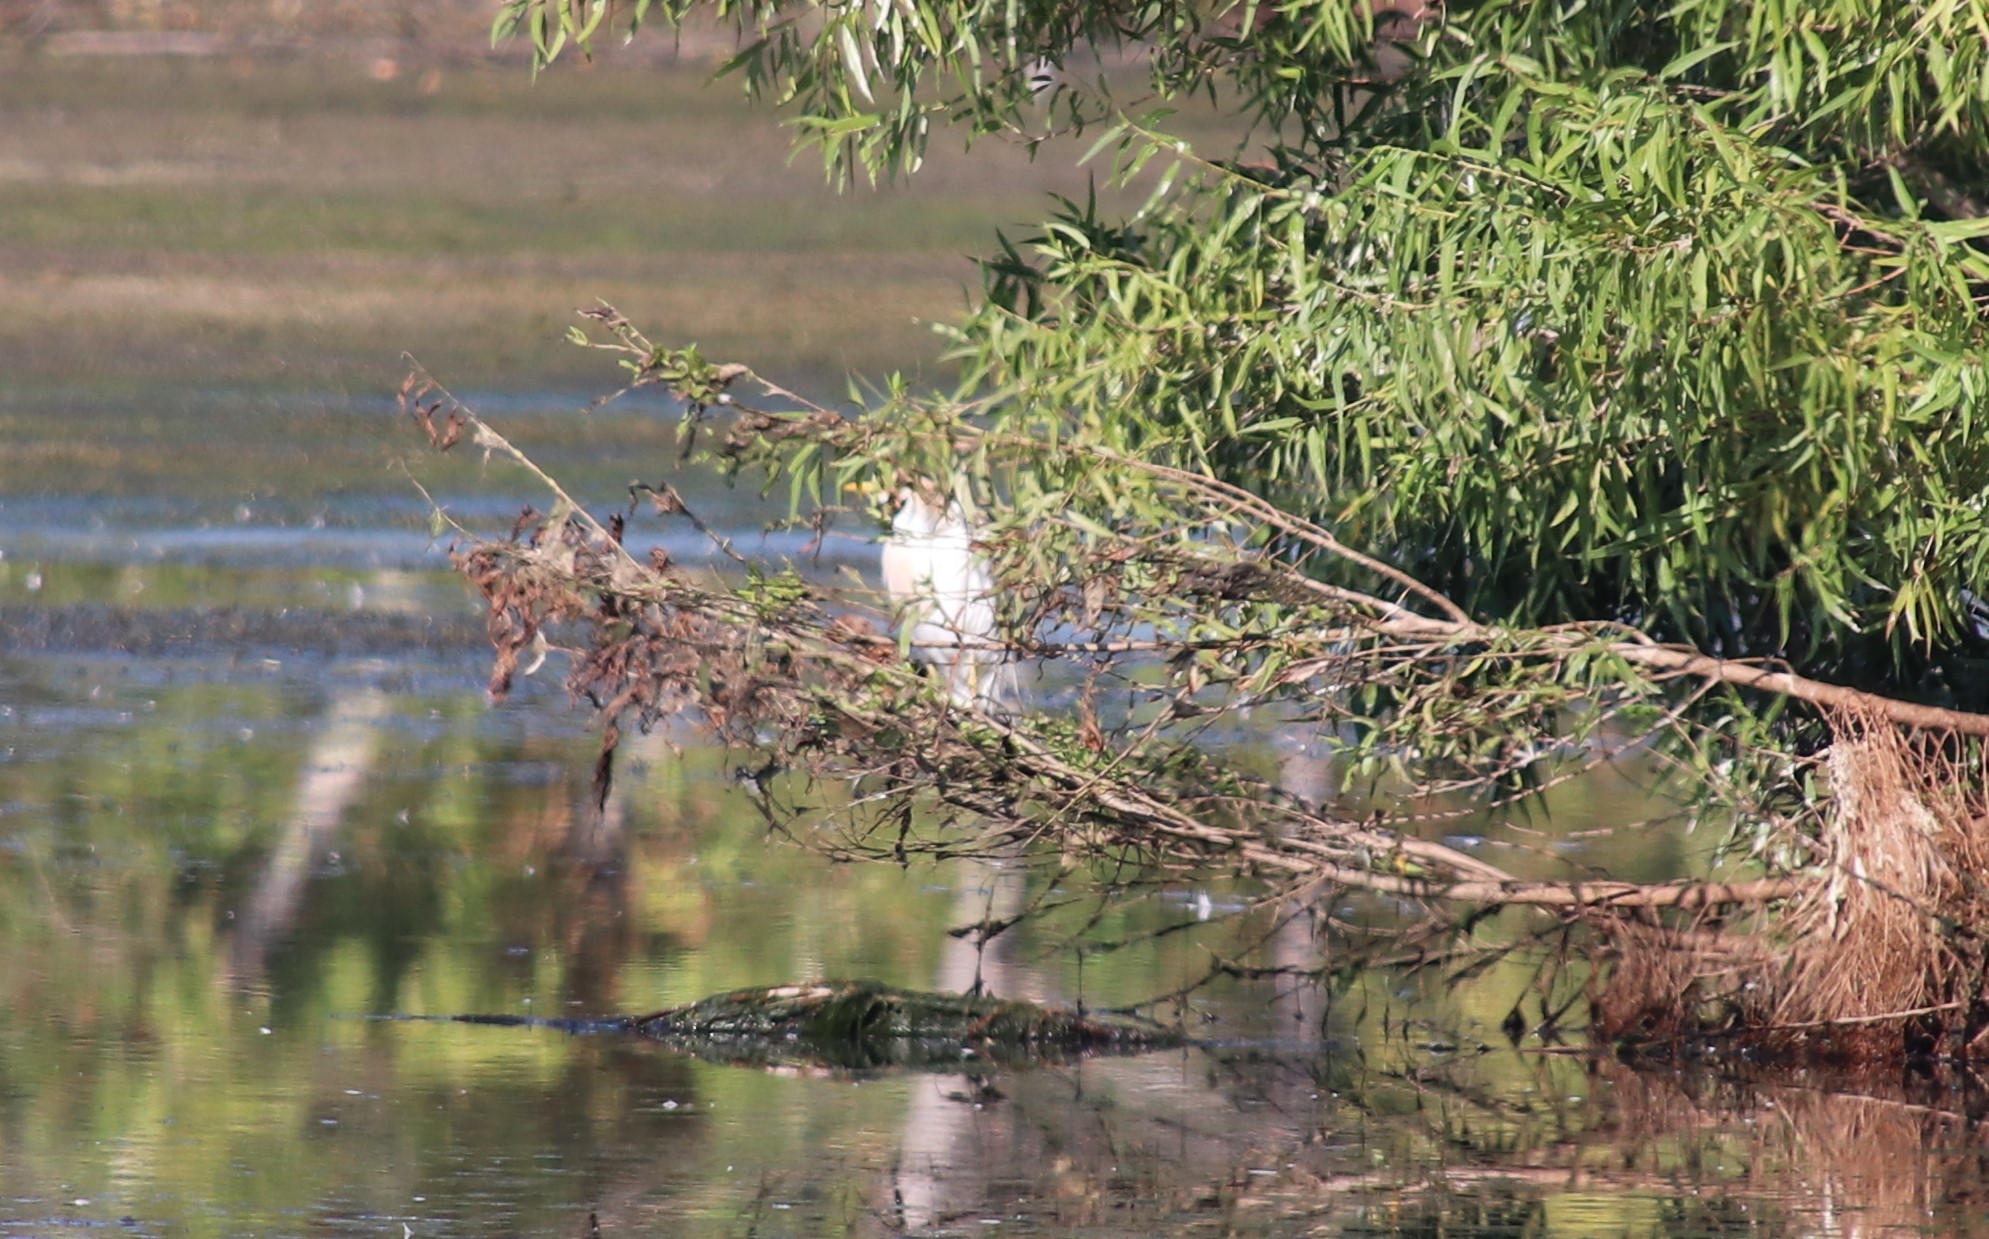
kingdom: Animalia
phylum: Chordata
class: Aves
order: Pelecaniformes
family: Ardeidae
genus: Bubulcus
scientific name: Bubulcus ibis
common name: Cattle egret
